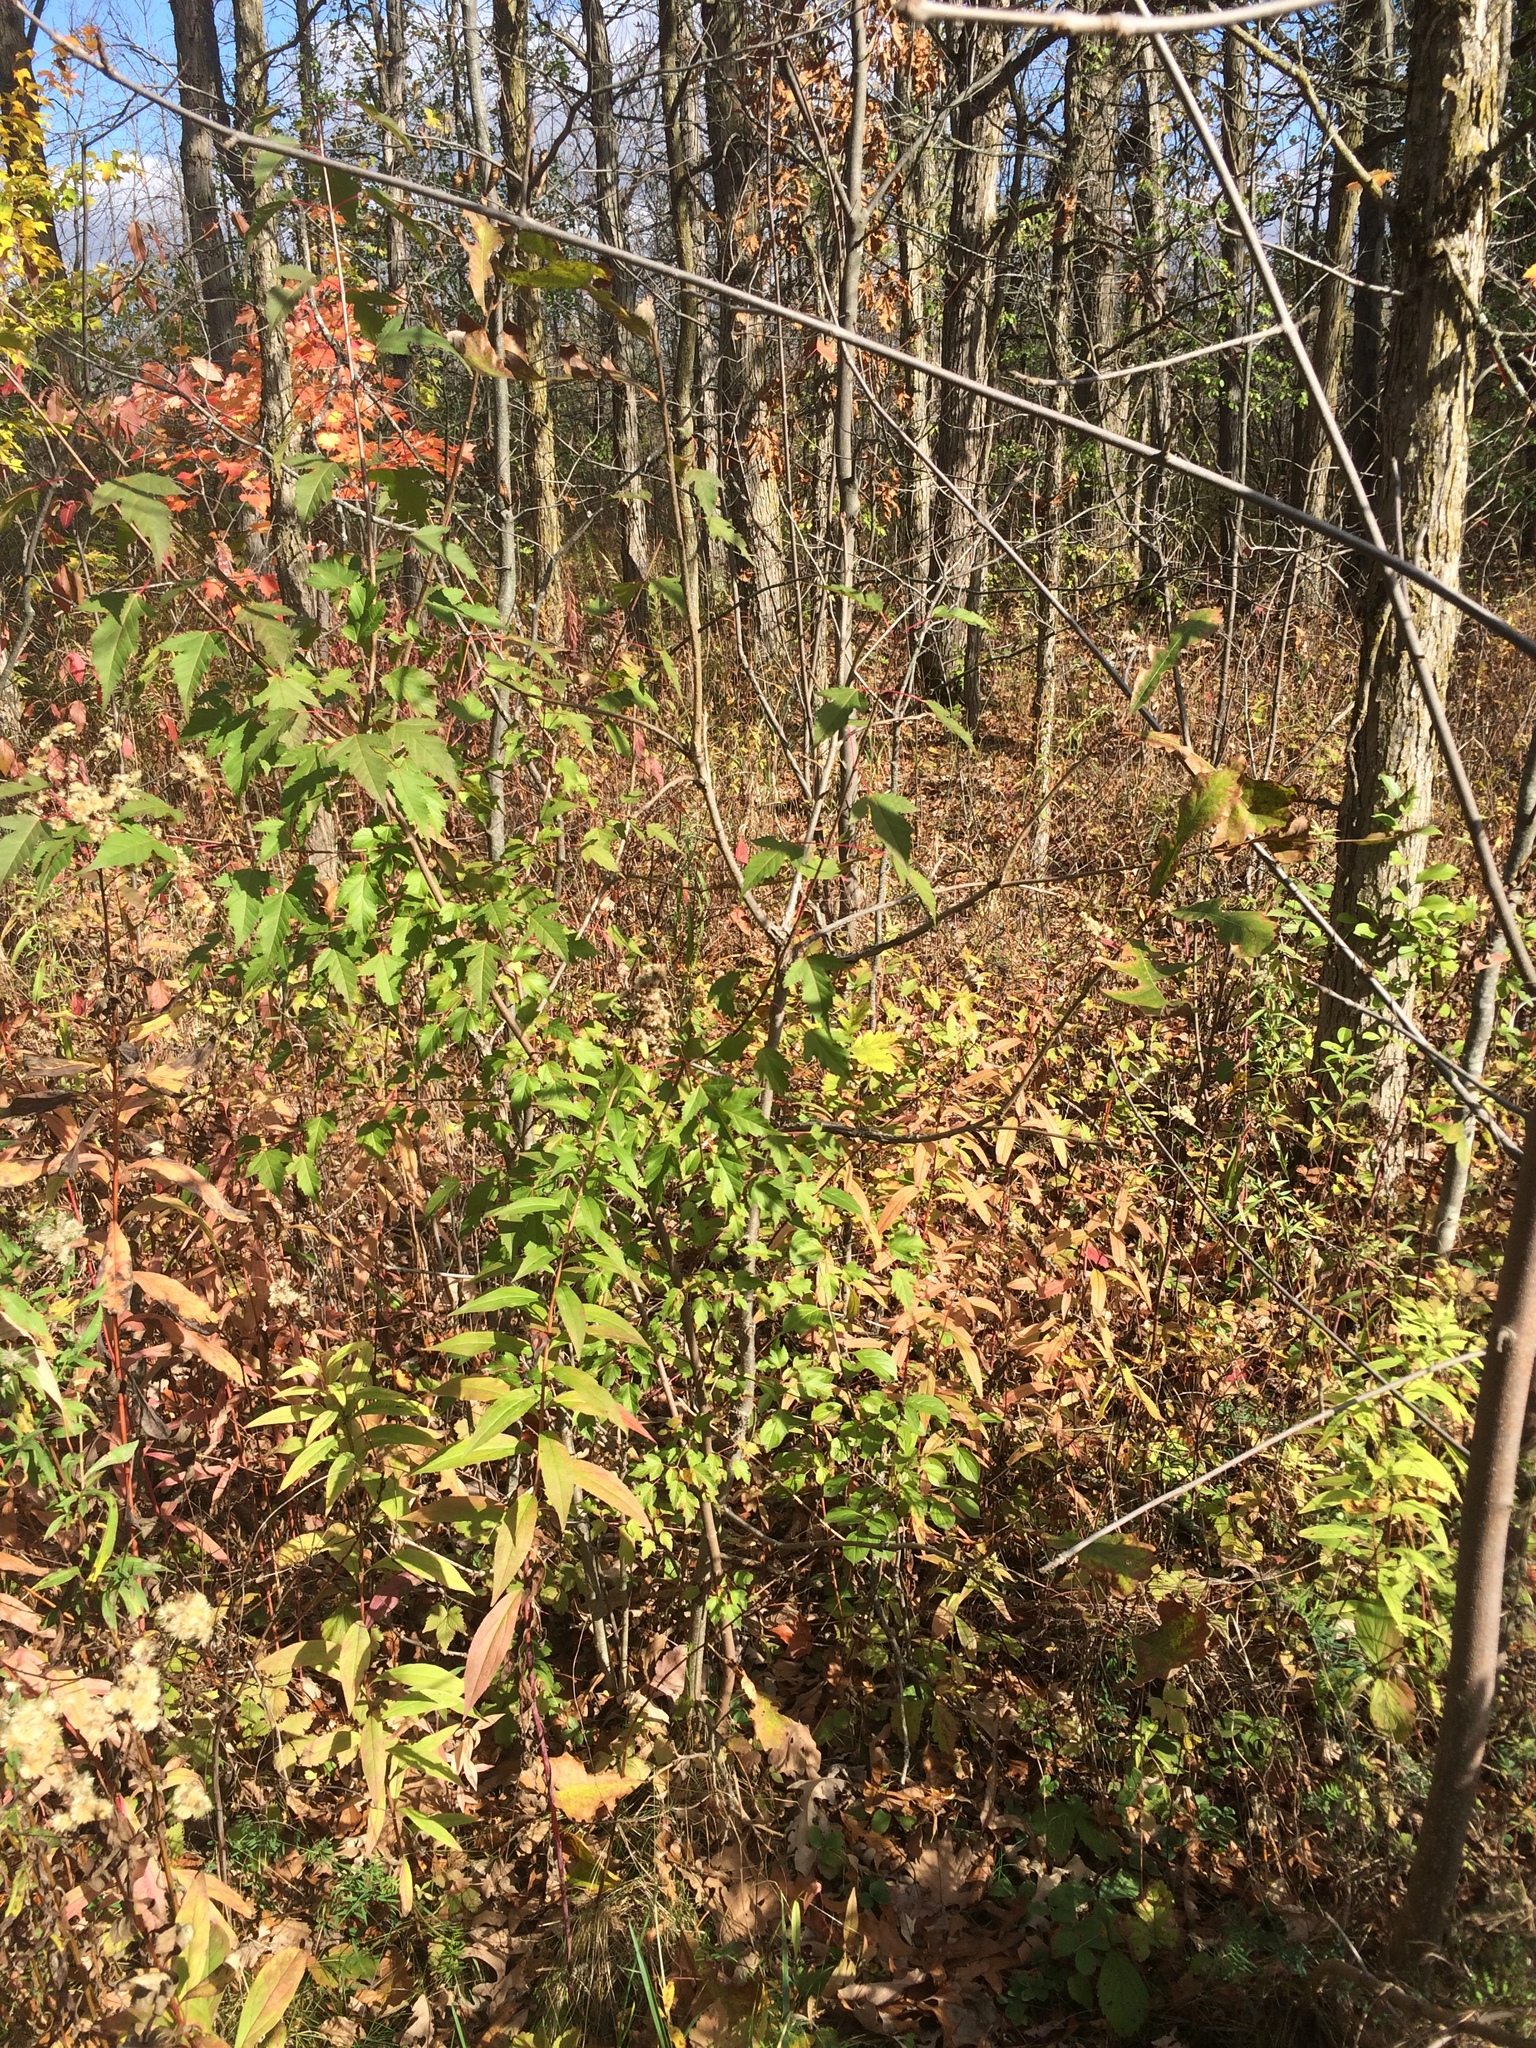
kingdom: Plantae
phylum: Tracheophyta
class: Magnoliopsida
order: Sapindales
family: Sapindaceae
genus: Acer
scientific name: Acer tataricum
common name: Tartar maple
